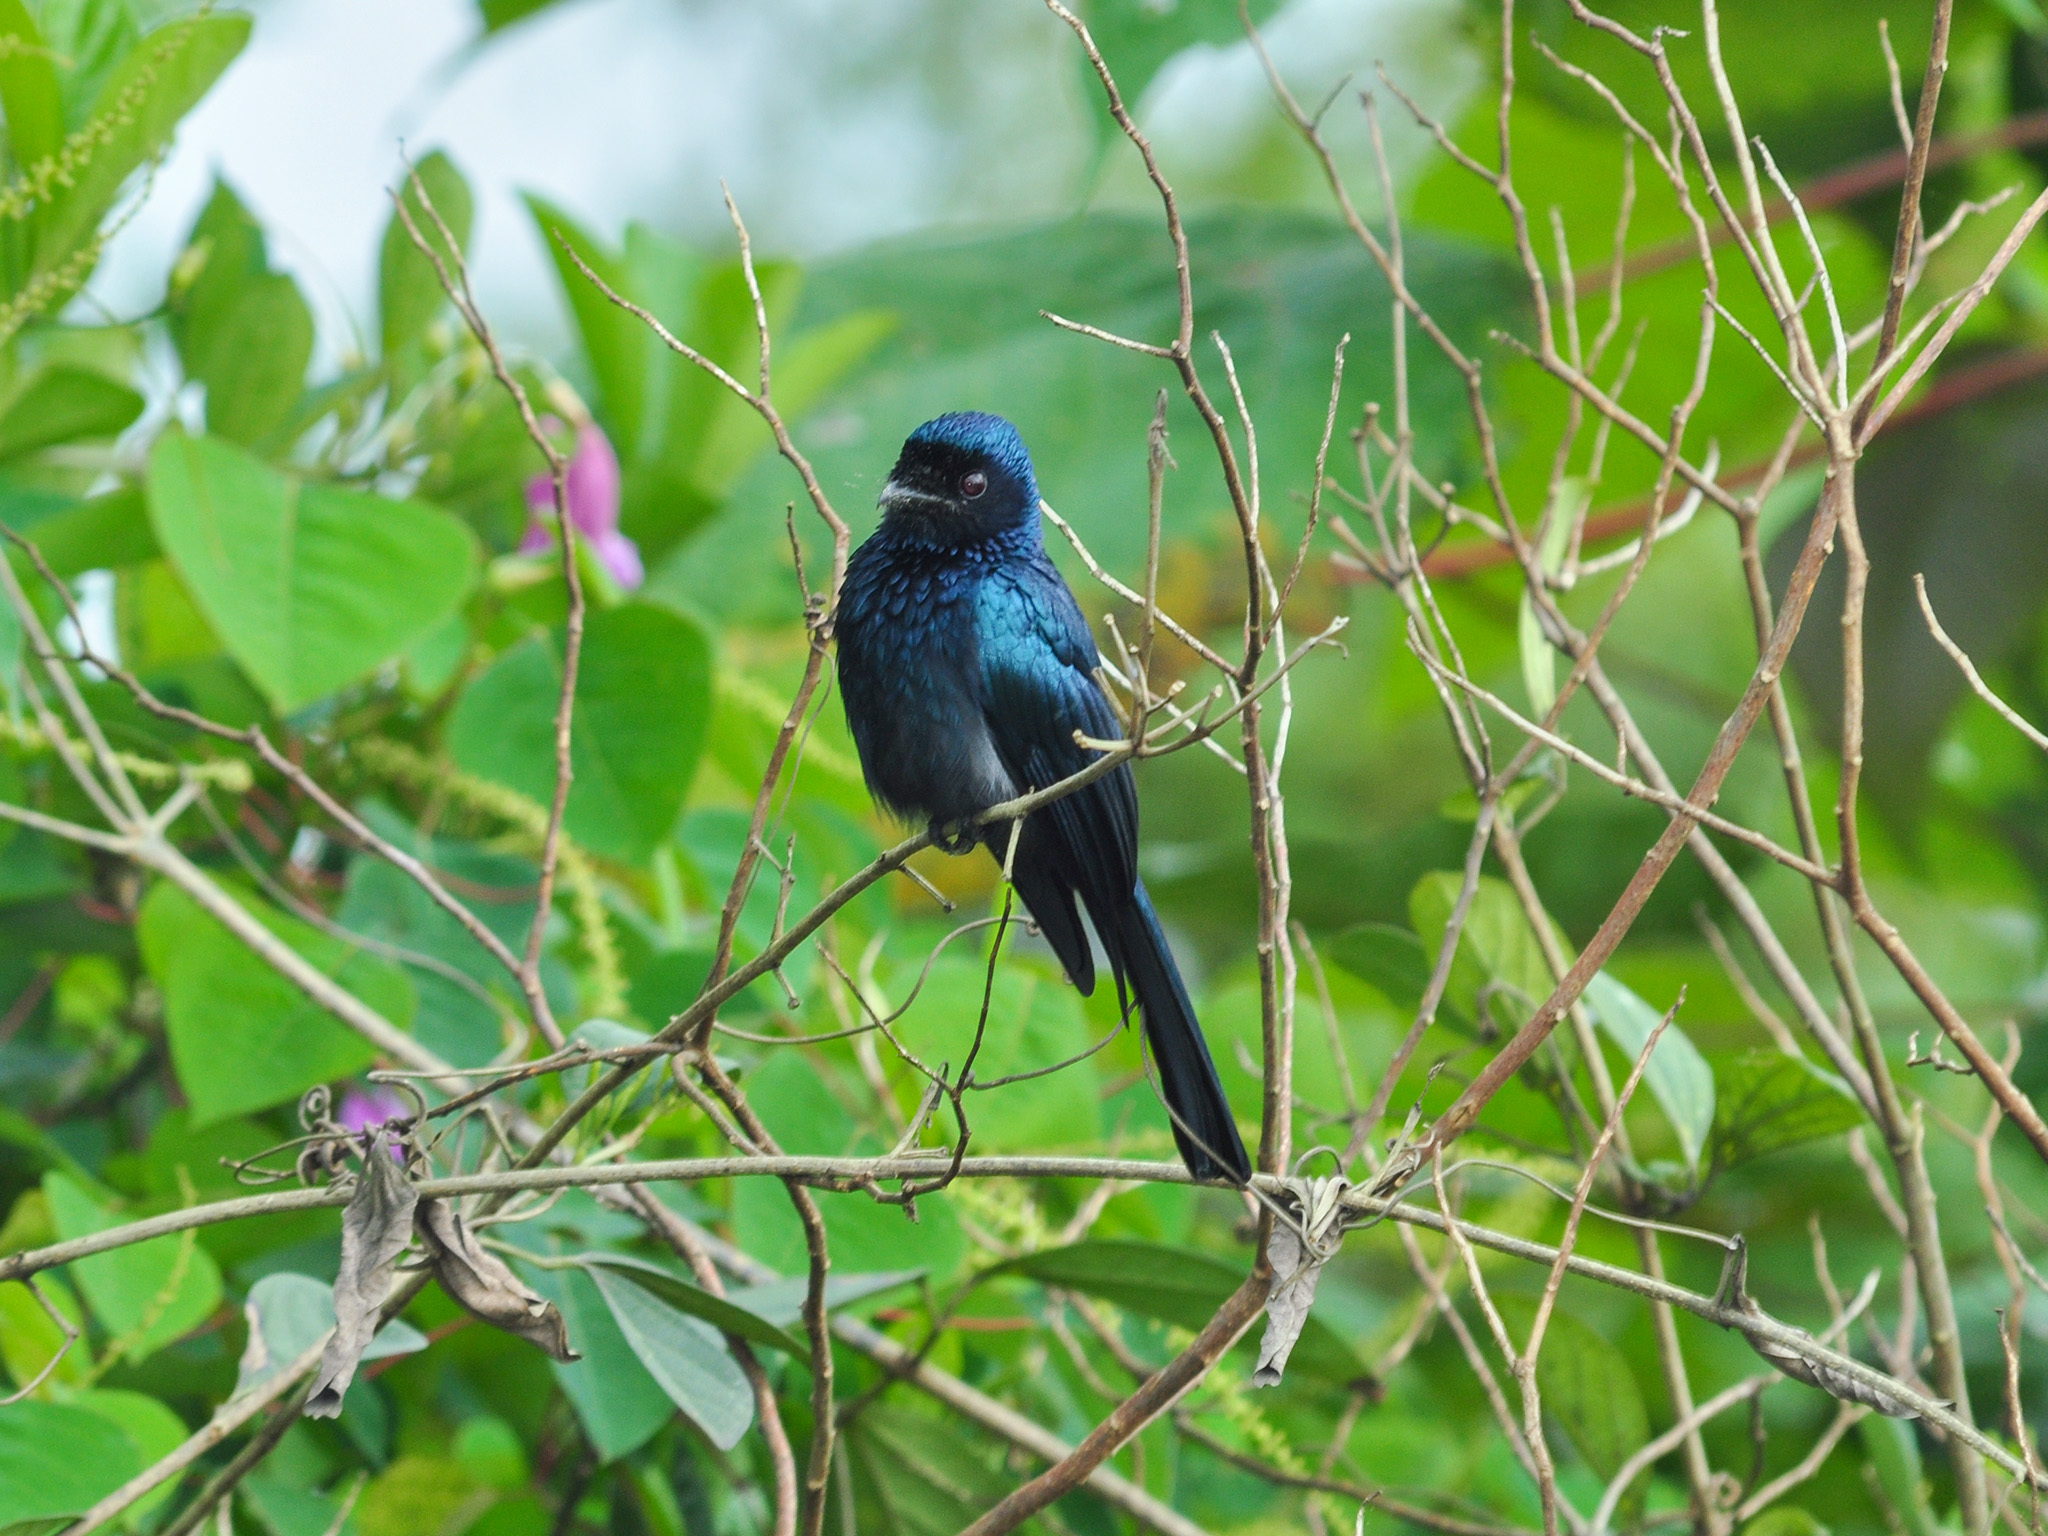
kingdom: Animalia
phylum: Chordata
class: Aves
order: Passeriformes
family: Dicruridae
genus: Dicrurus
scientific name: Dicrurus aeneus
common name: Bronzed drongo
